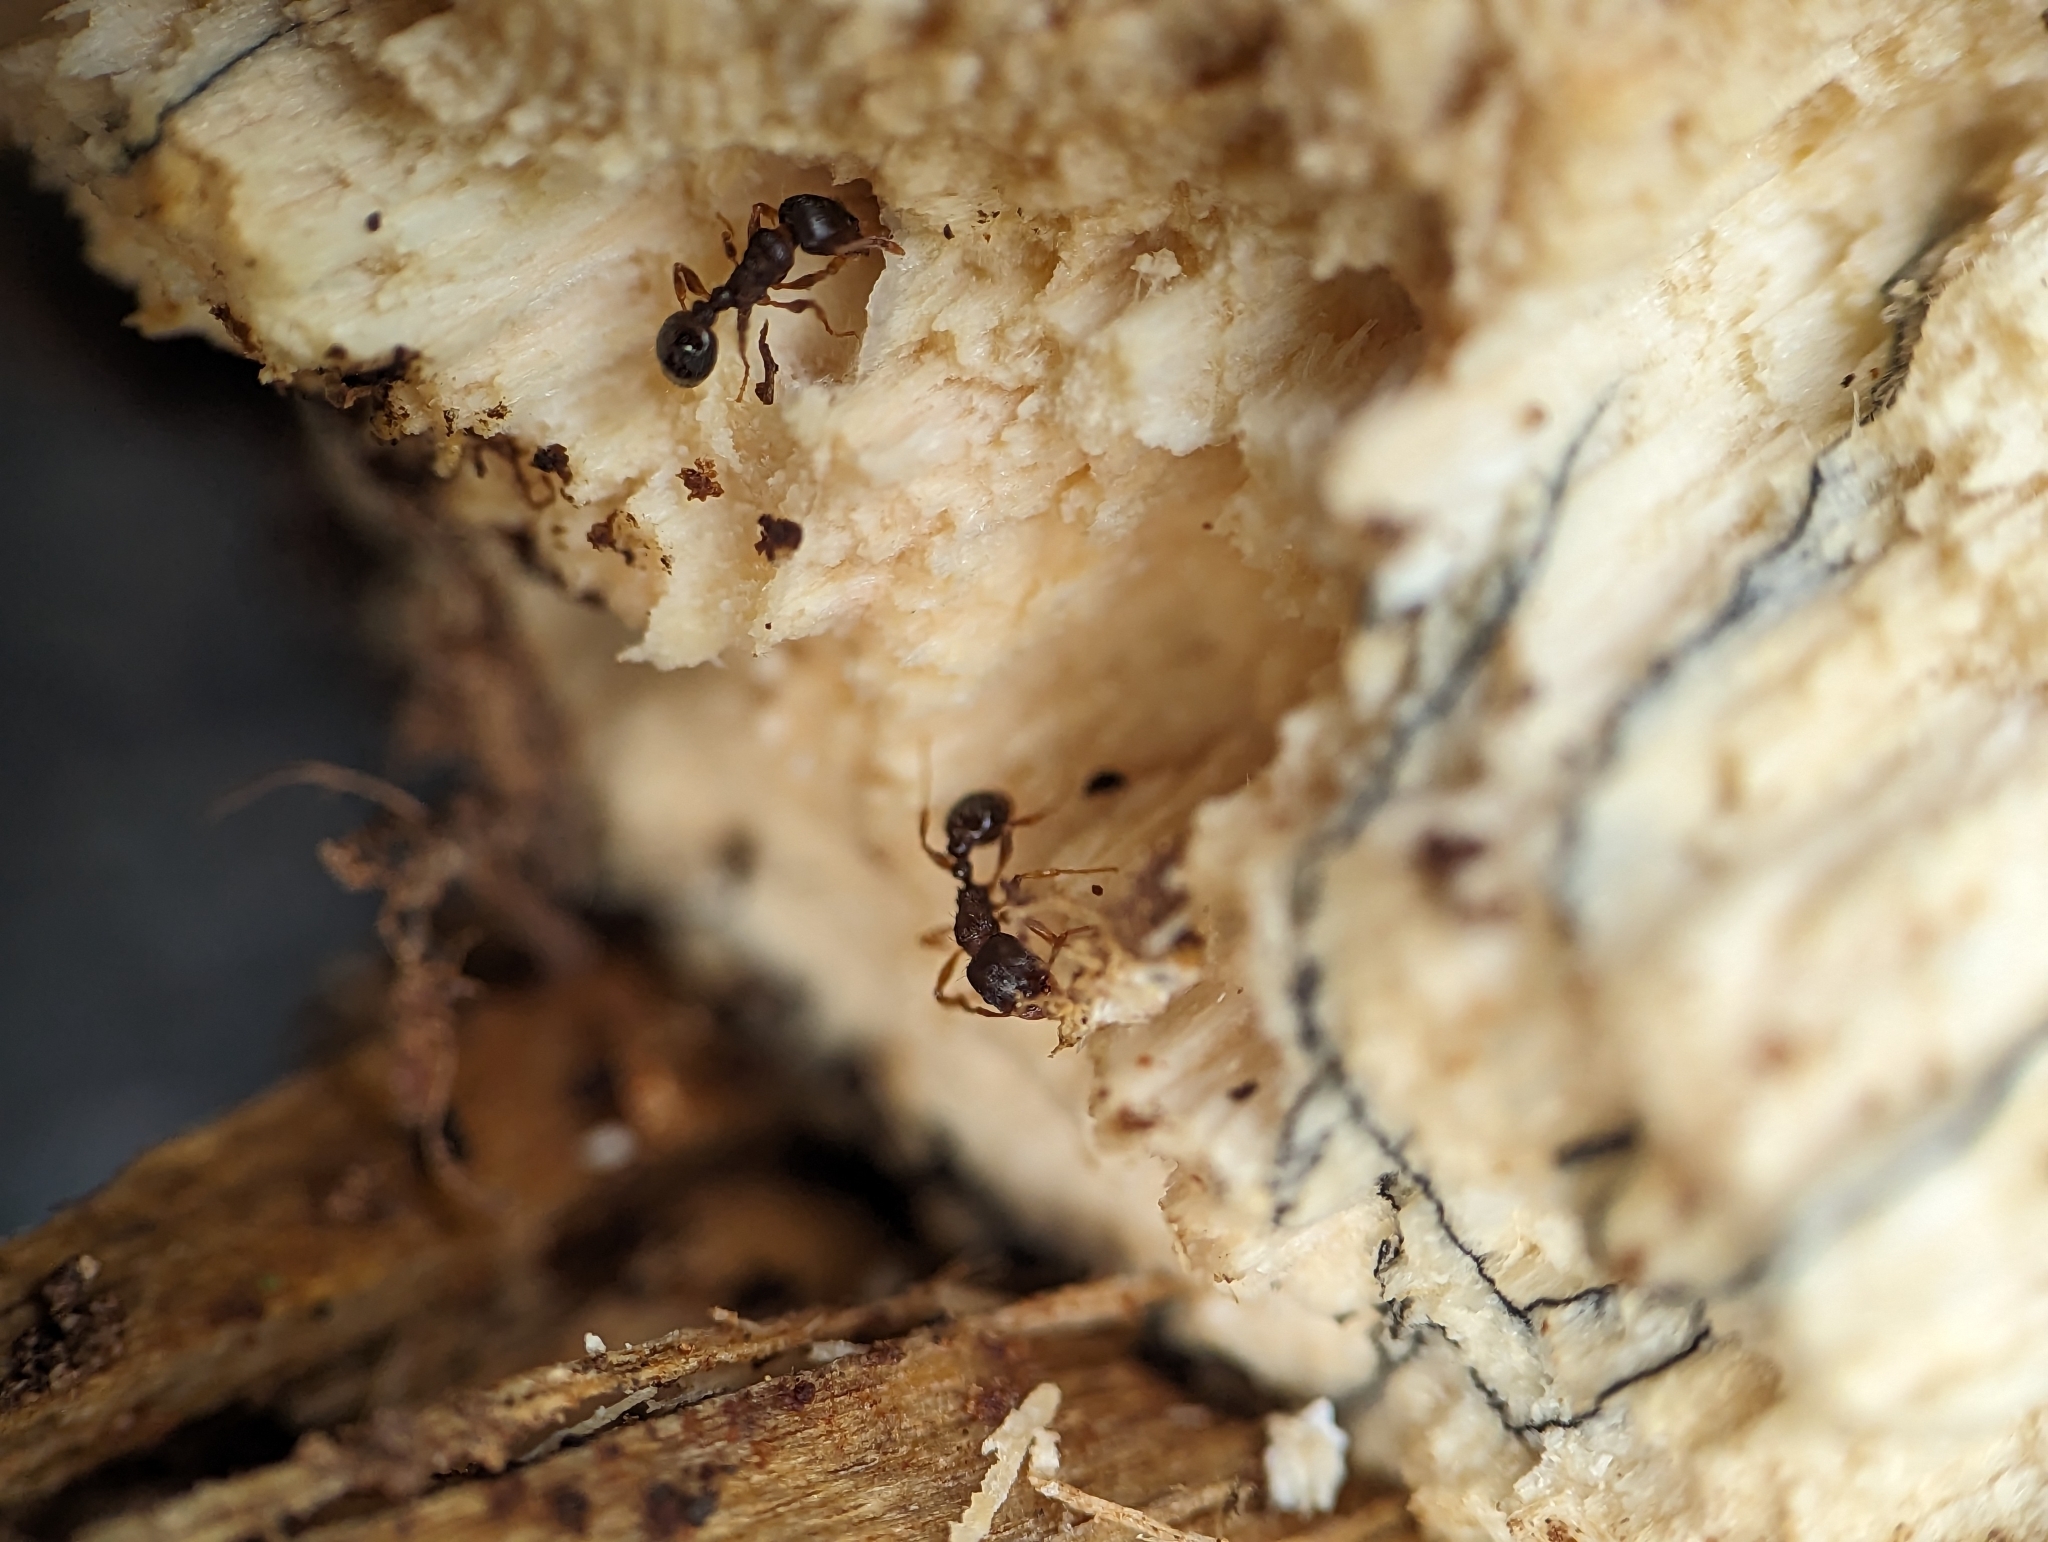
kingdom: Animalia
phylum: Arthropoda
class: Insecta
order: Hymenoptera
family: Formicidae
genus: Tetramorium
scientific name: Tetramorium immigrans
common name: Pavement ant
